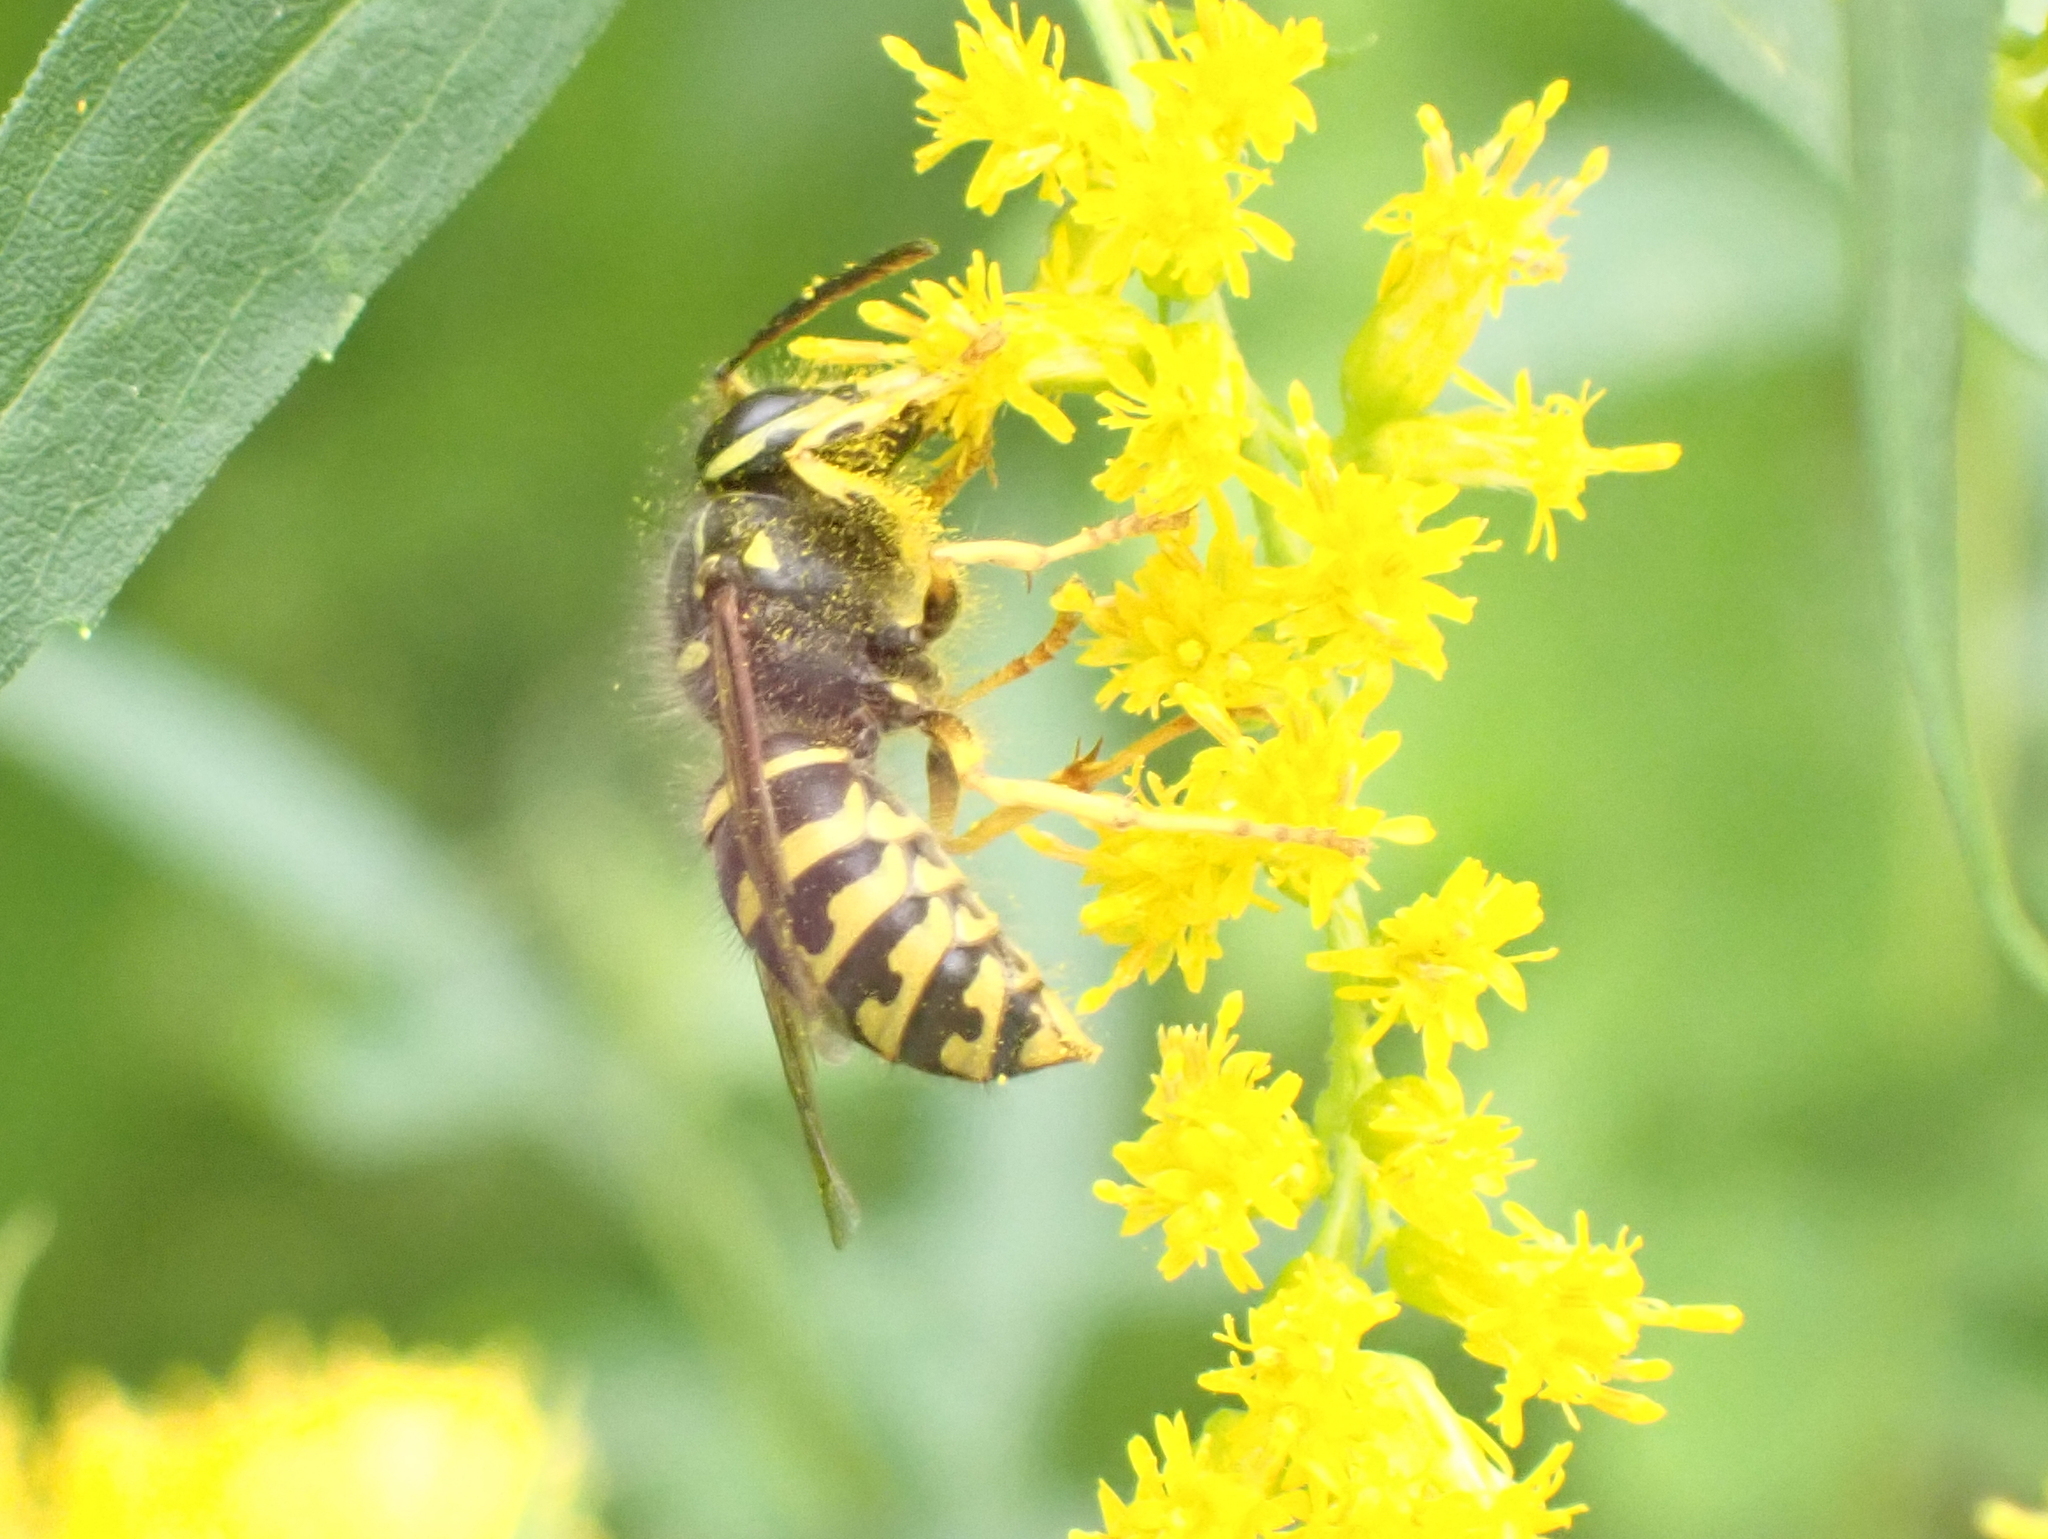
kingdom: Animalia
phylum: Arthropoda
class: Insecta
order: Hymenoptera
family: Vespidae
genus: Dolichovespula
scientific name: Dolichovespula arenaria
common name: Aerial yellowjacket
